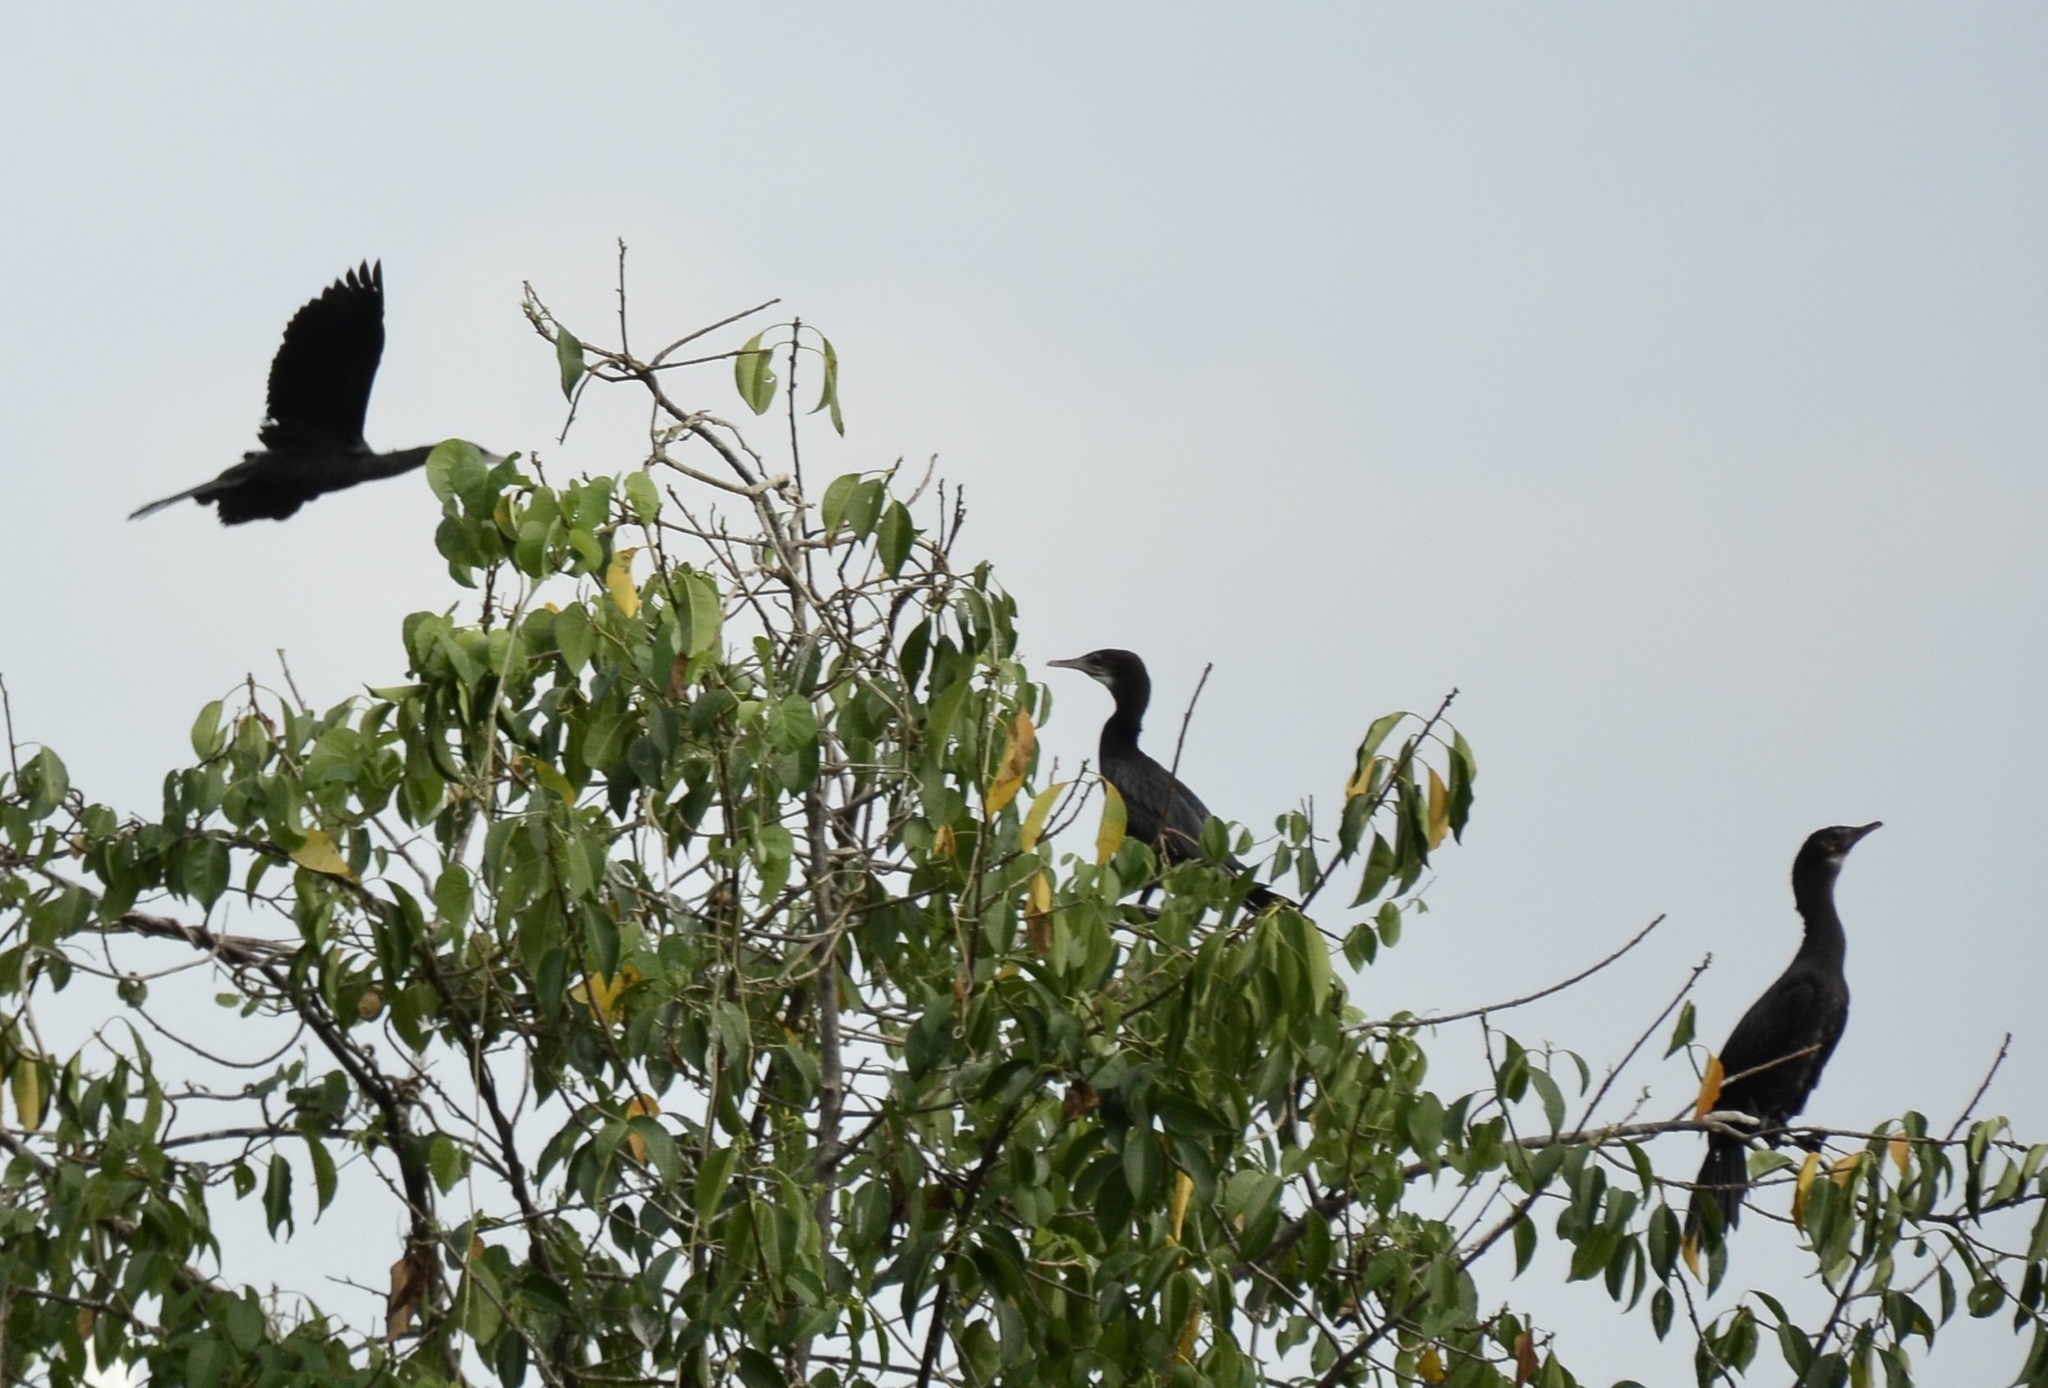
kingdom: Animalia
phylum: Chordata
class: Aves
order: Suliformes
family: Phalacrocoracidae
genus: Microcarbo
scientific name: Microcarbo niger
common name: Little cormorant
